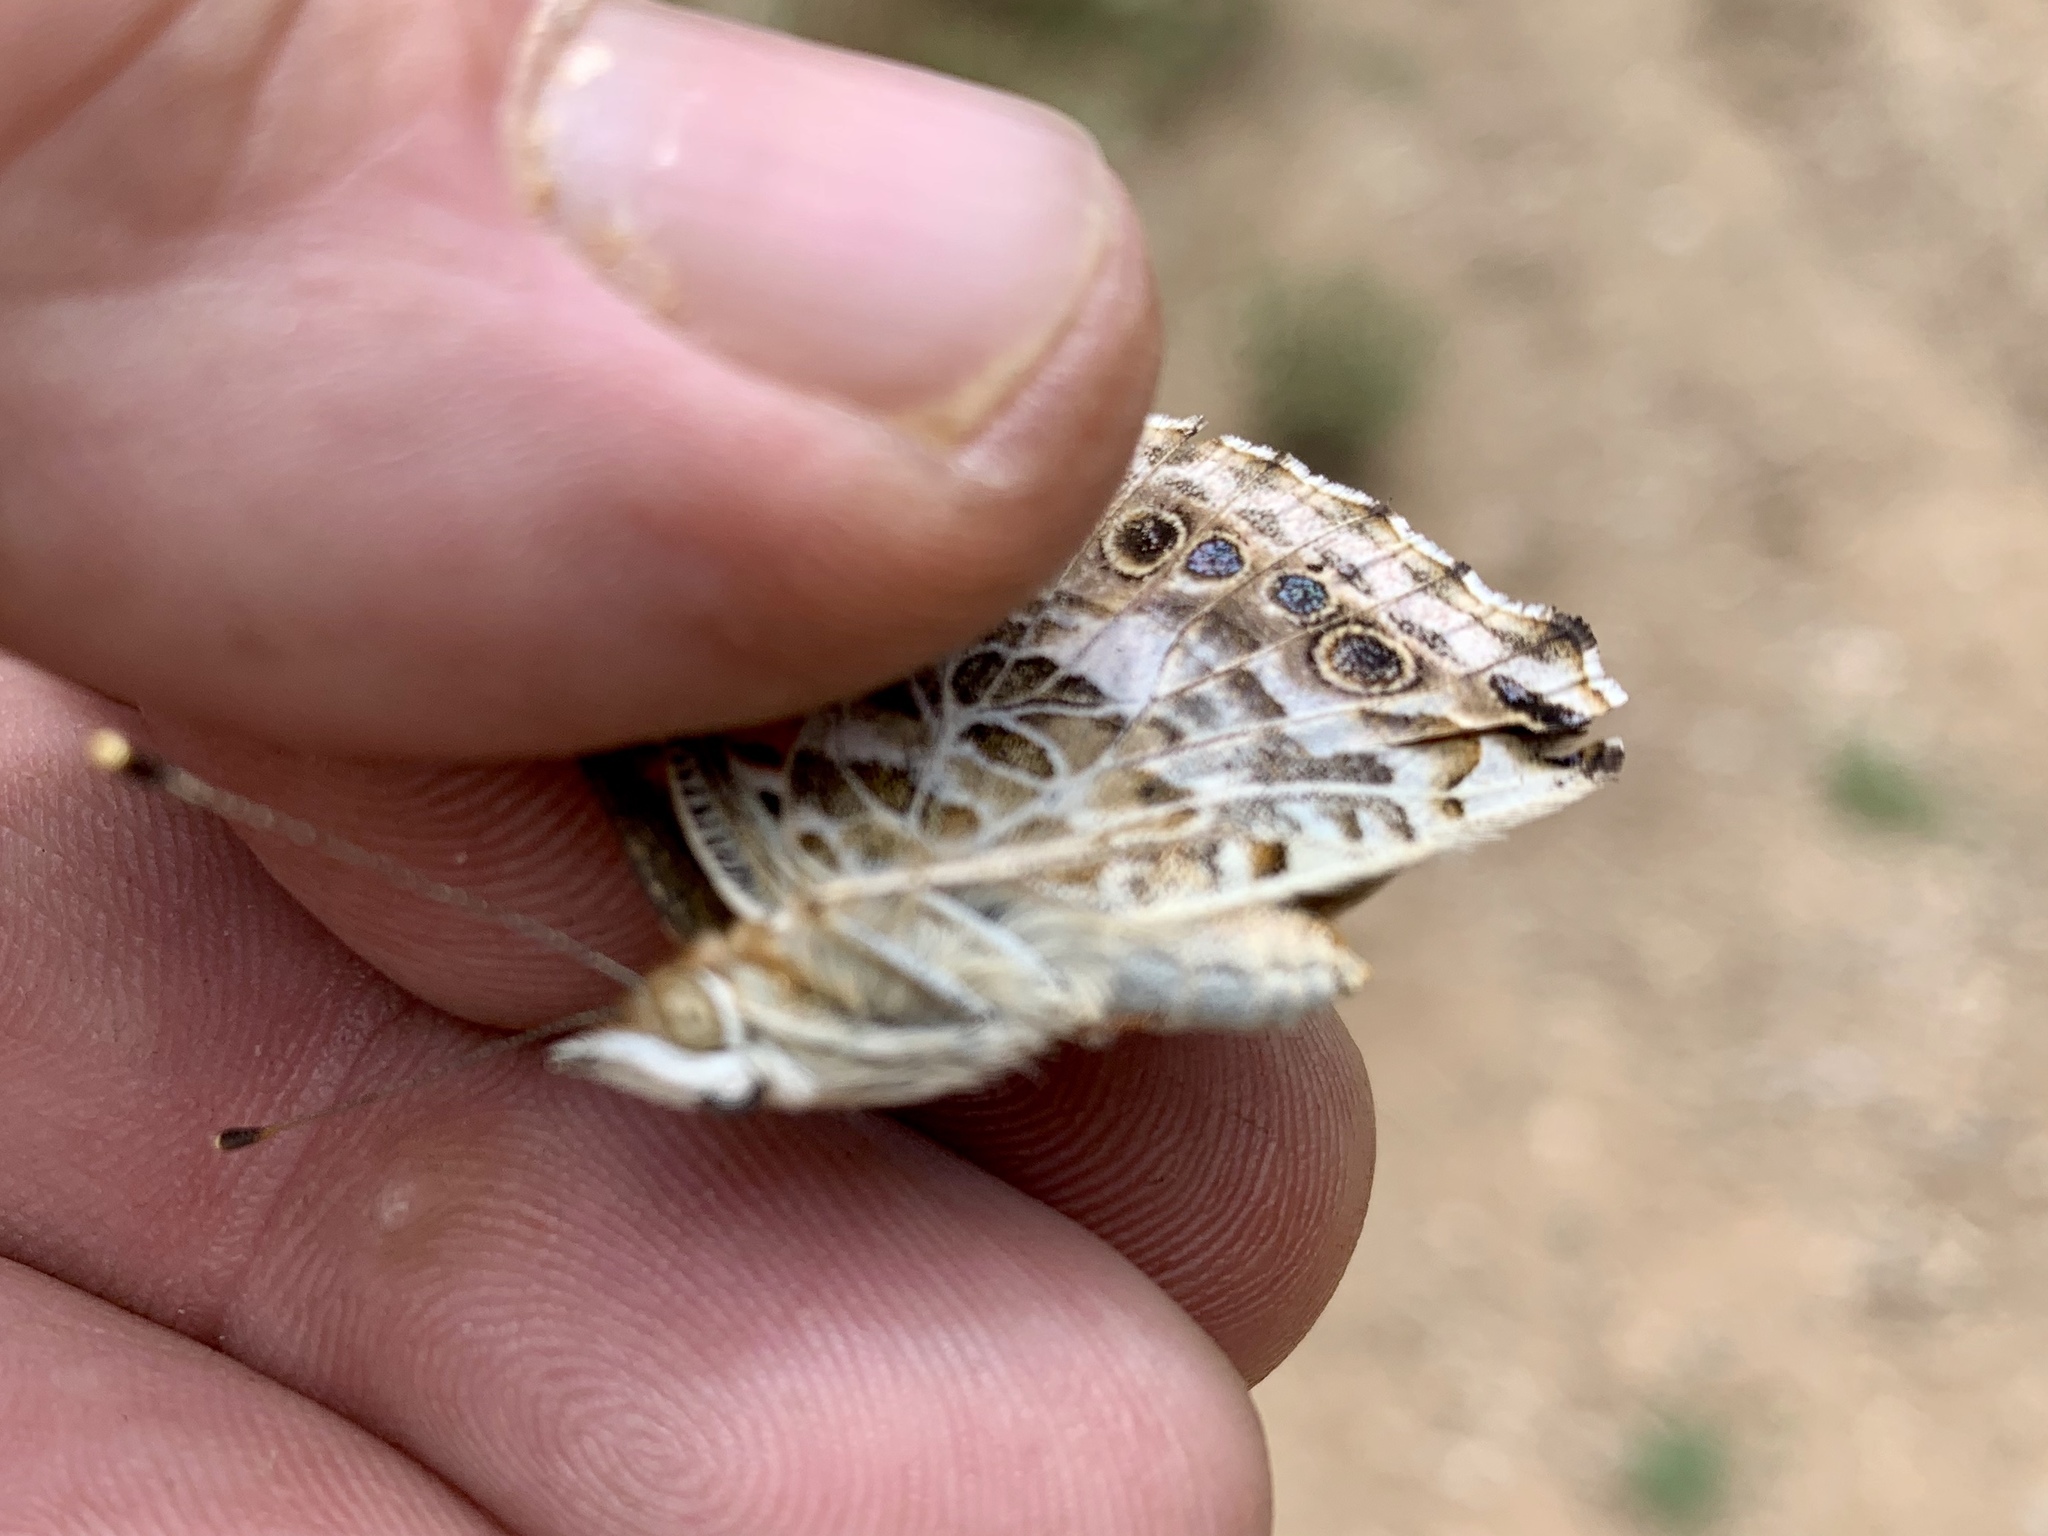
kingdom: Animalia
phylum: Arthropoda
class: Insecta
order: Lepidoptera
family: Nymphalidae
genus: Vanessa
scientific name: Vanessa cardui
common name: Painted lady
